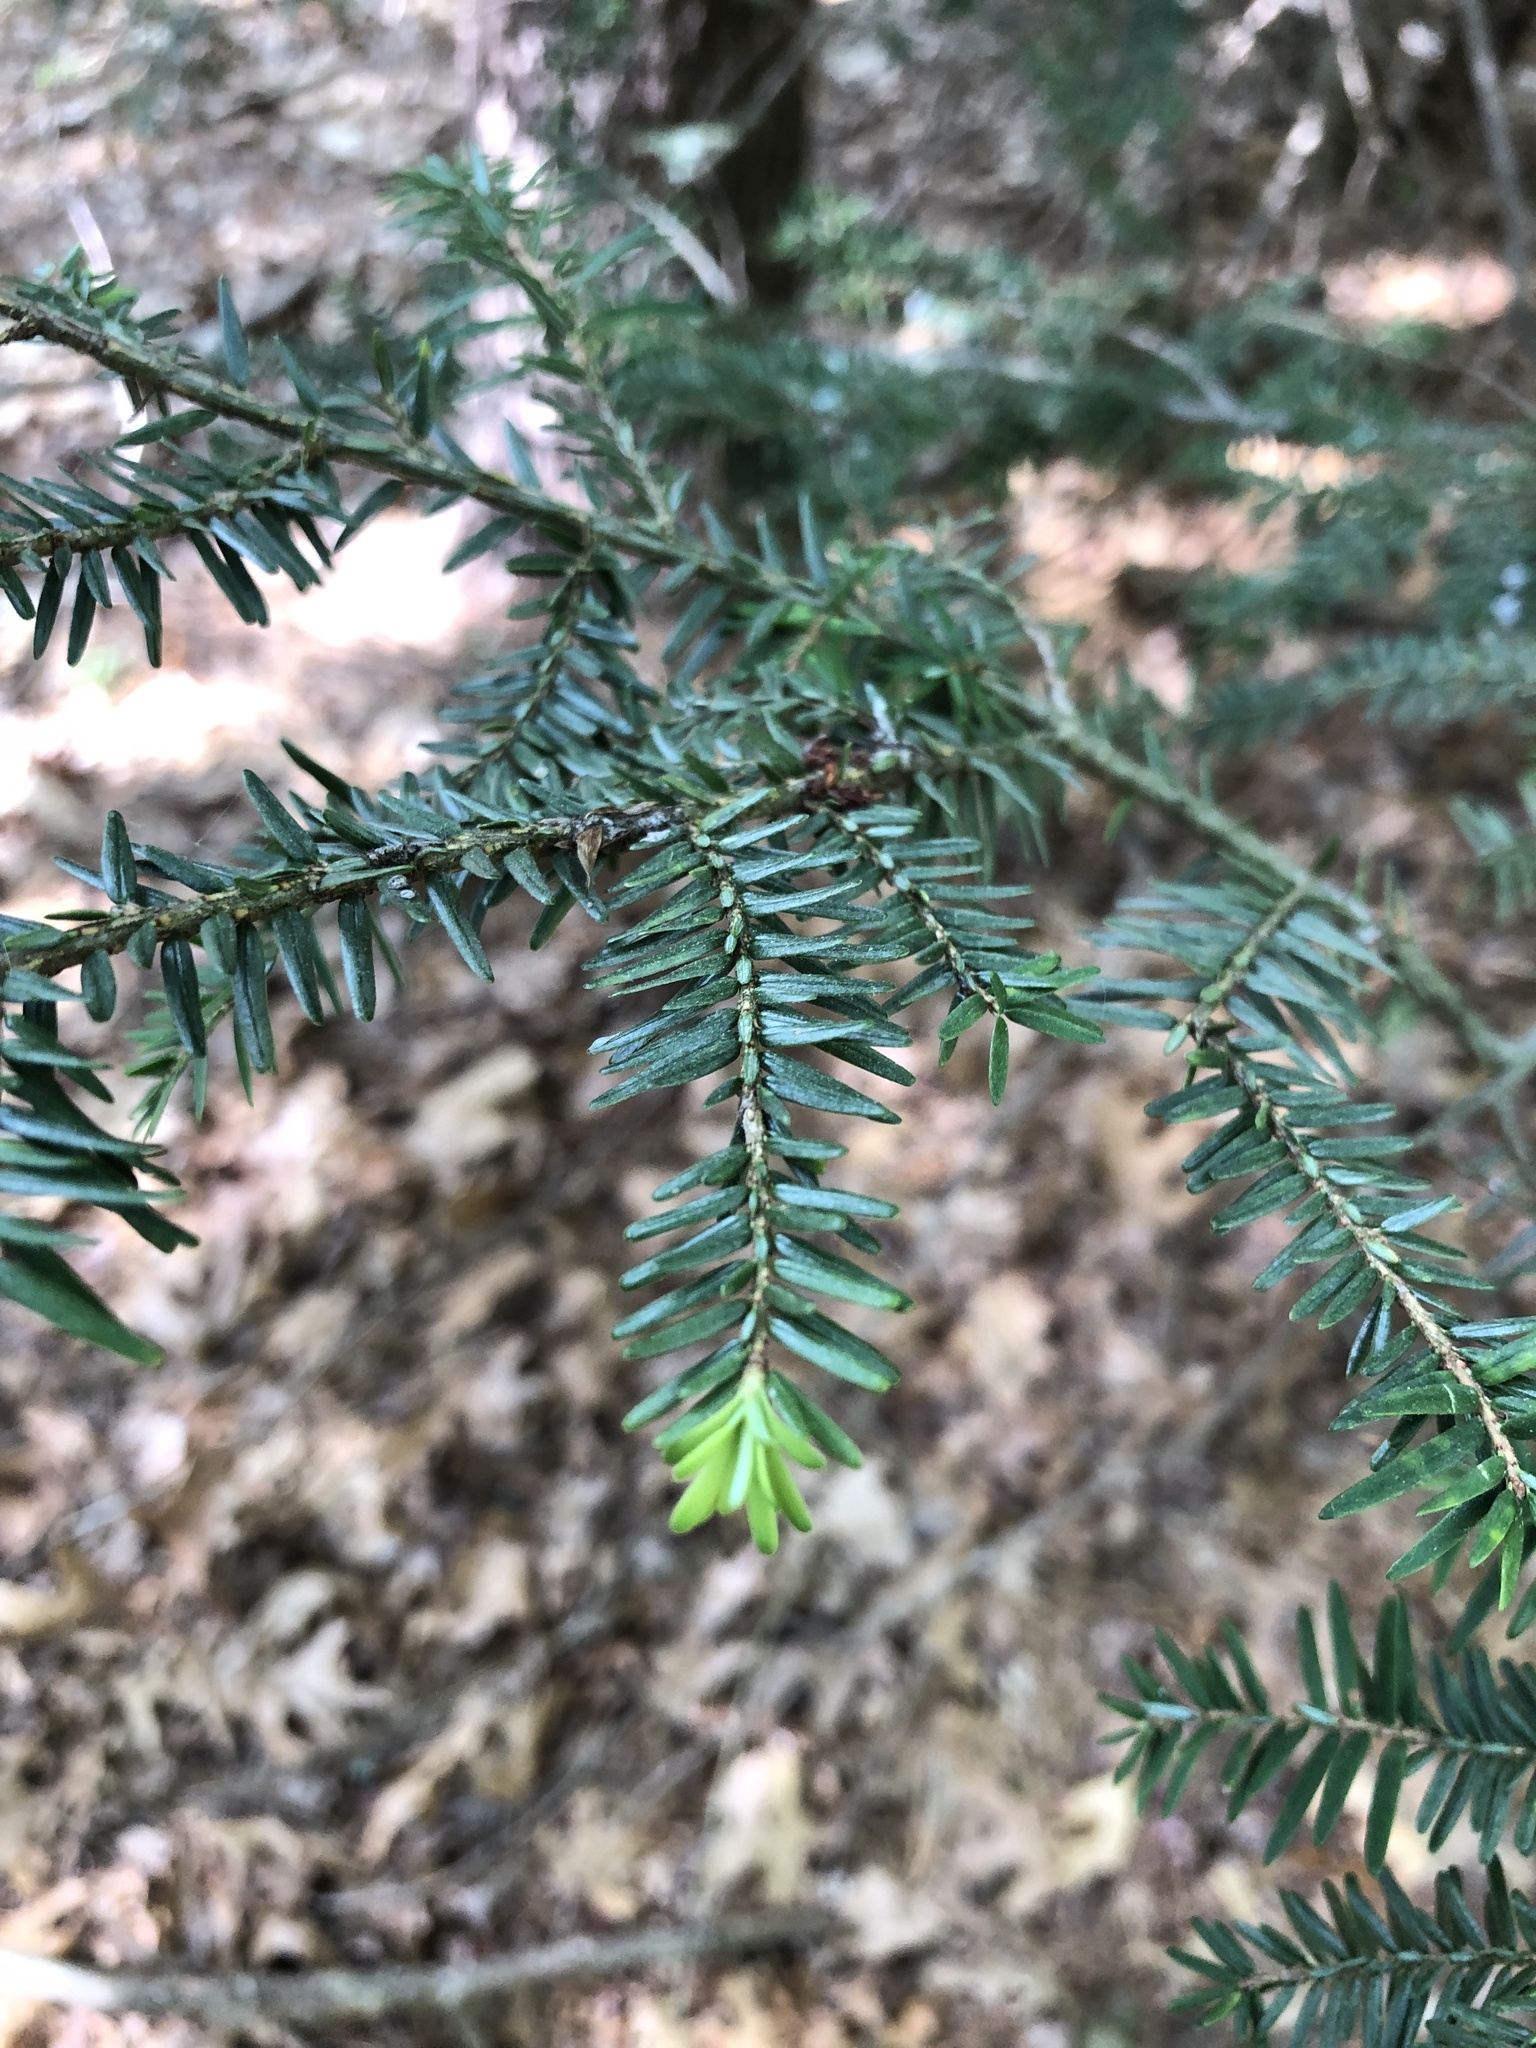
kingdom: Plantae
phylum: Tracheophyta
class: Pinopsida
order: Pinales
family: Pinaceae
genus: Tsuga
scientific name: Tsuga canadensis
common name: Eastern hemlock
